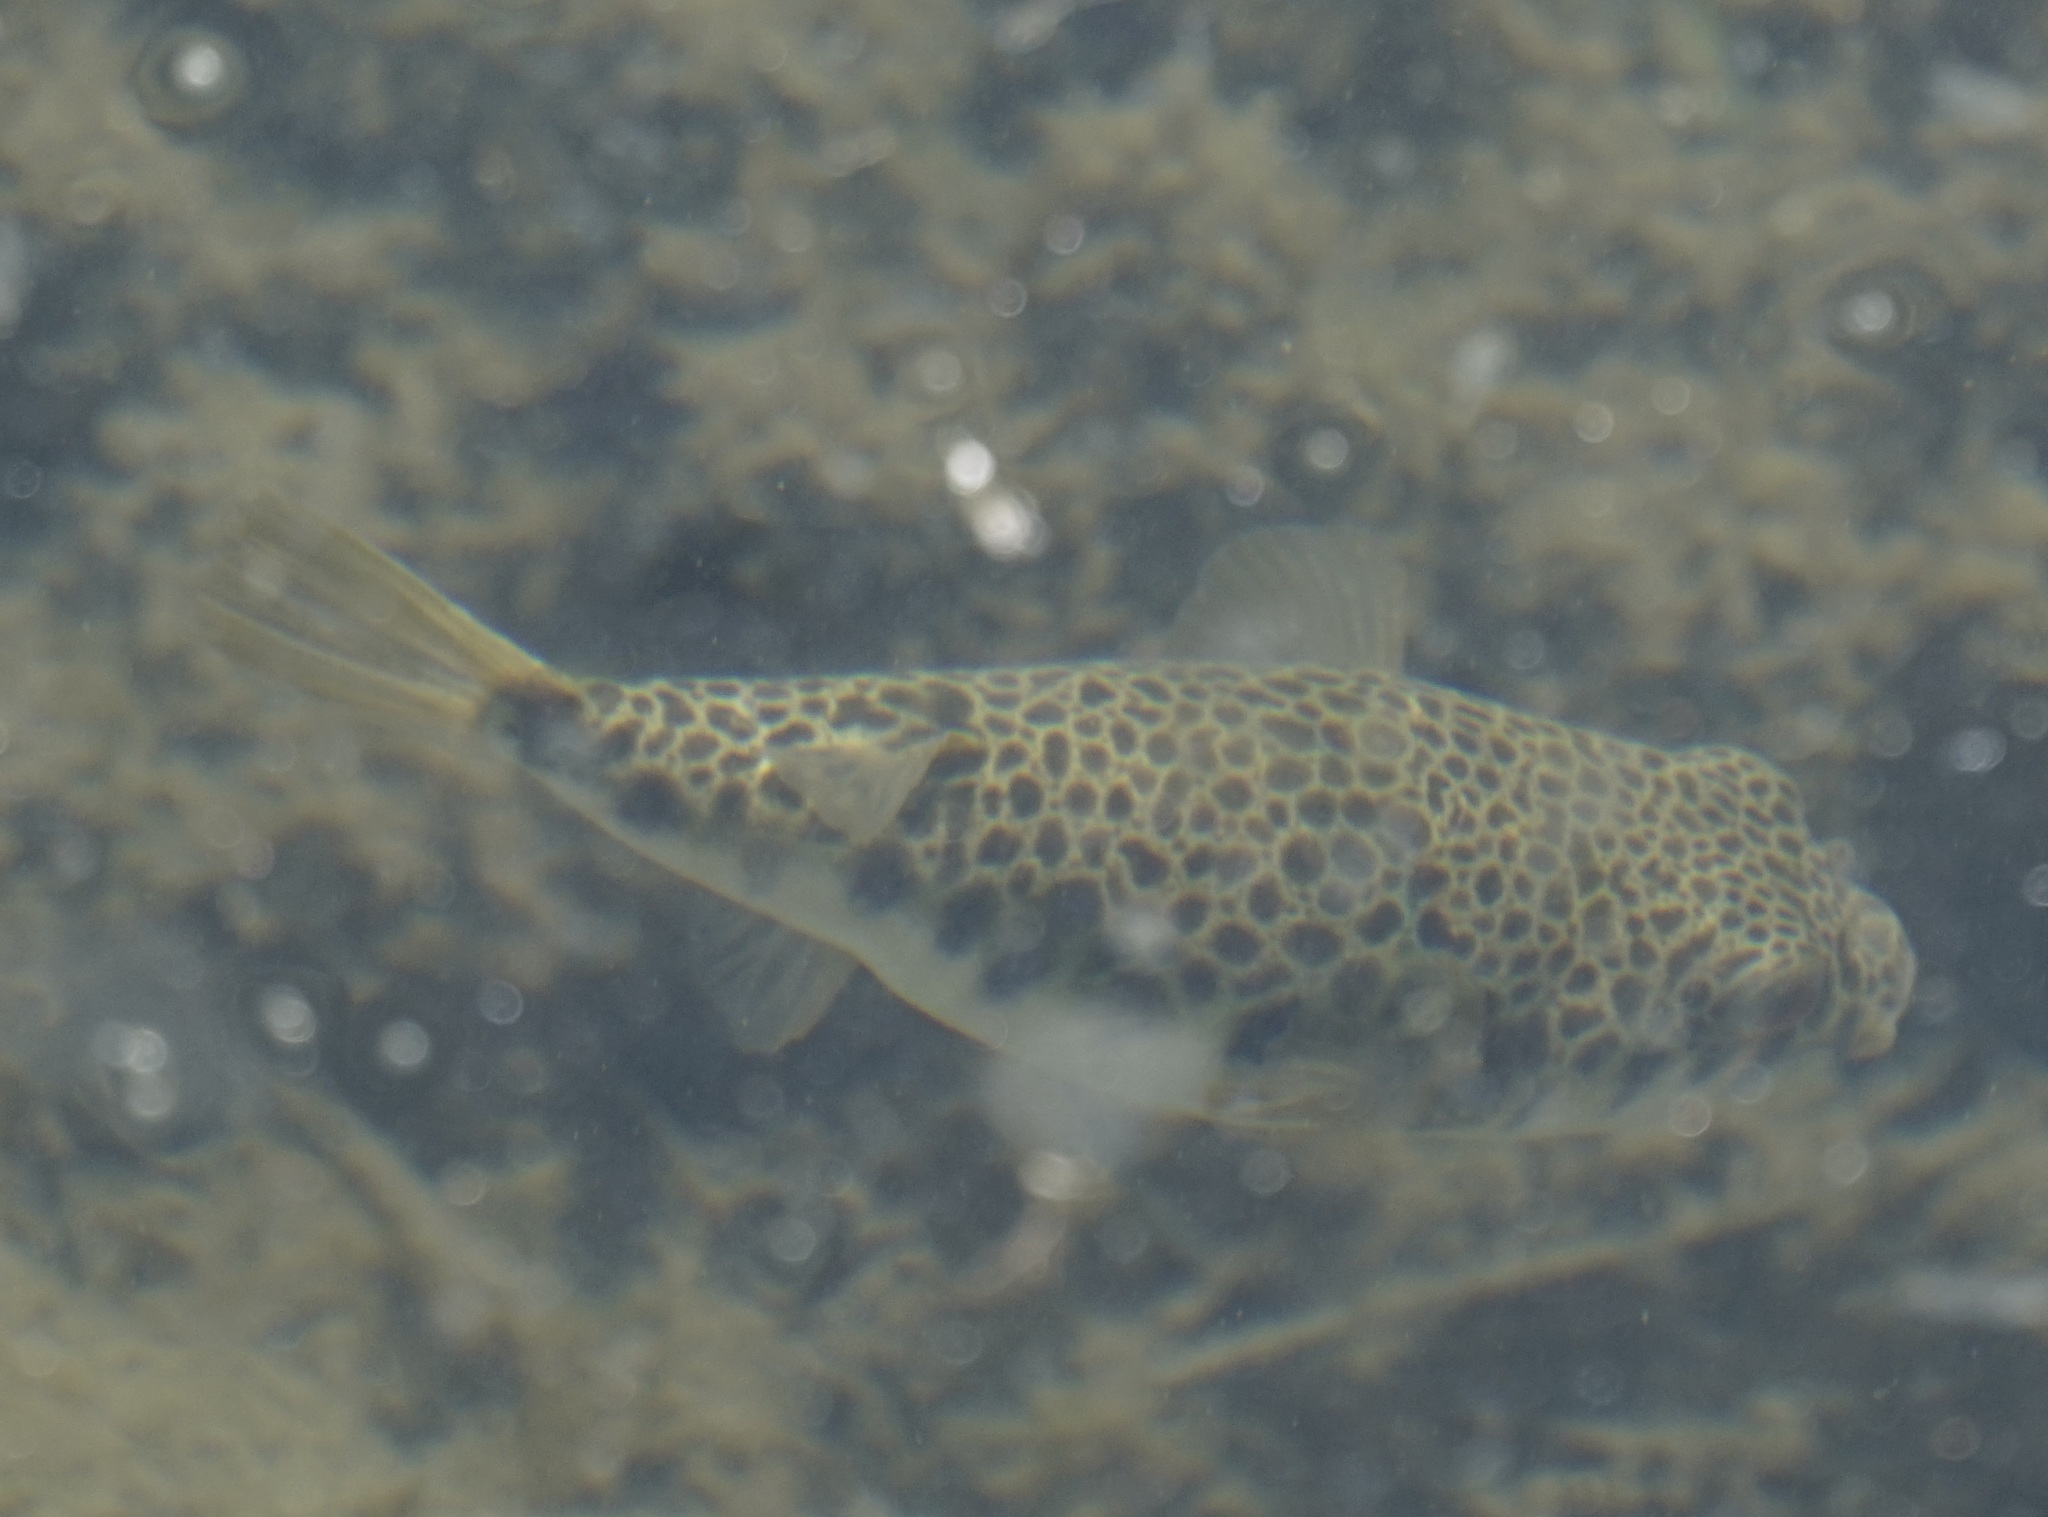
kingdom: Animalia
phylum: Chordata
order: Tetraodontiformes
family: Tetraodontidae
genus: Tetractenos
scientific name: Tetractenos hamiltoni
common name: Common toadfish
